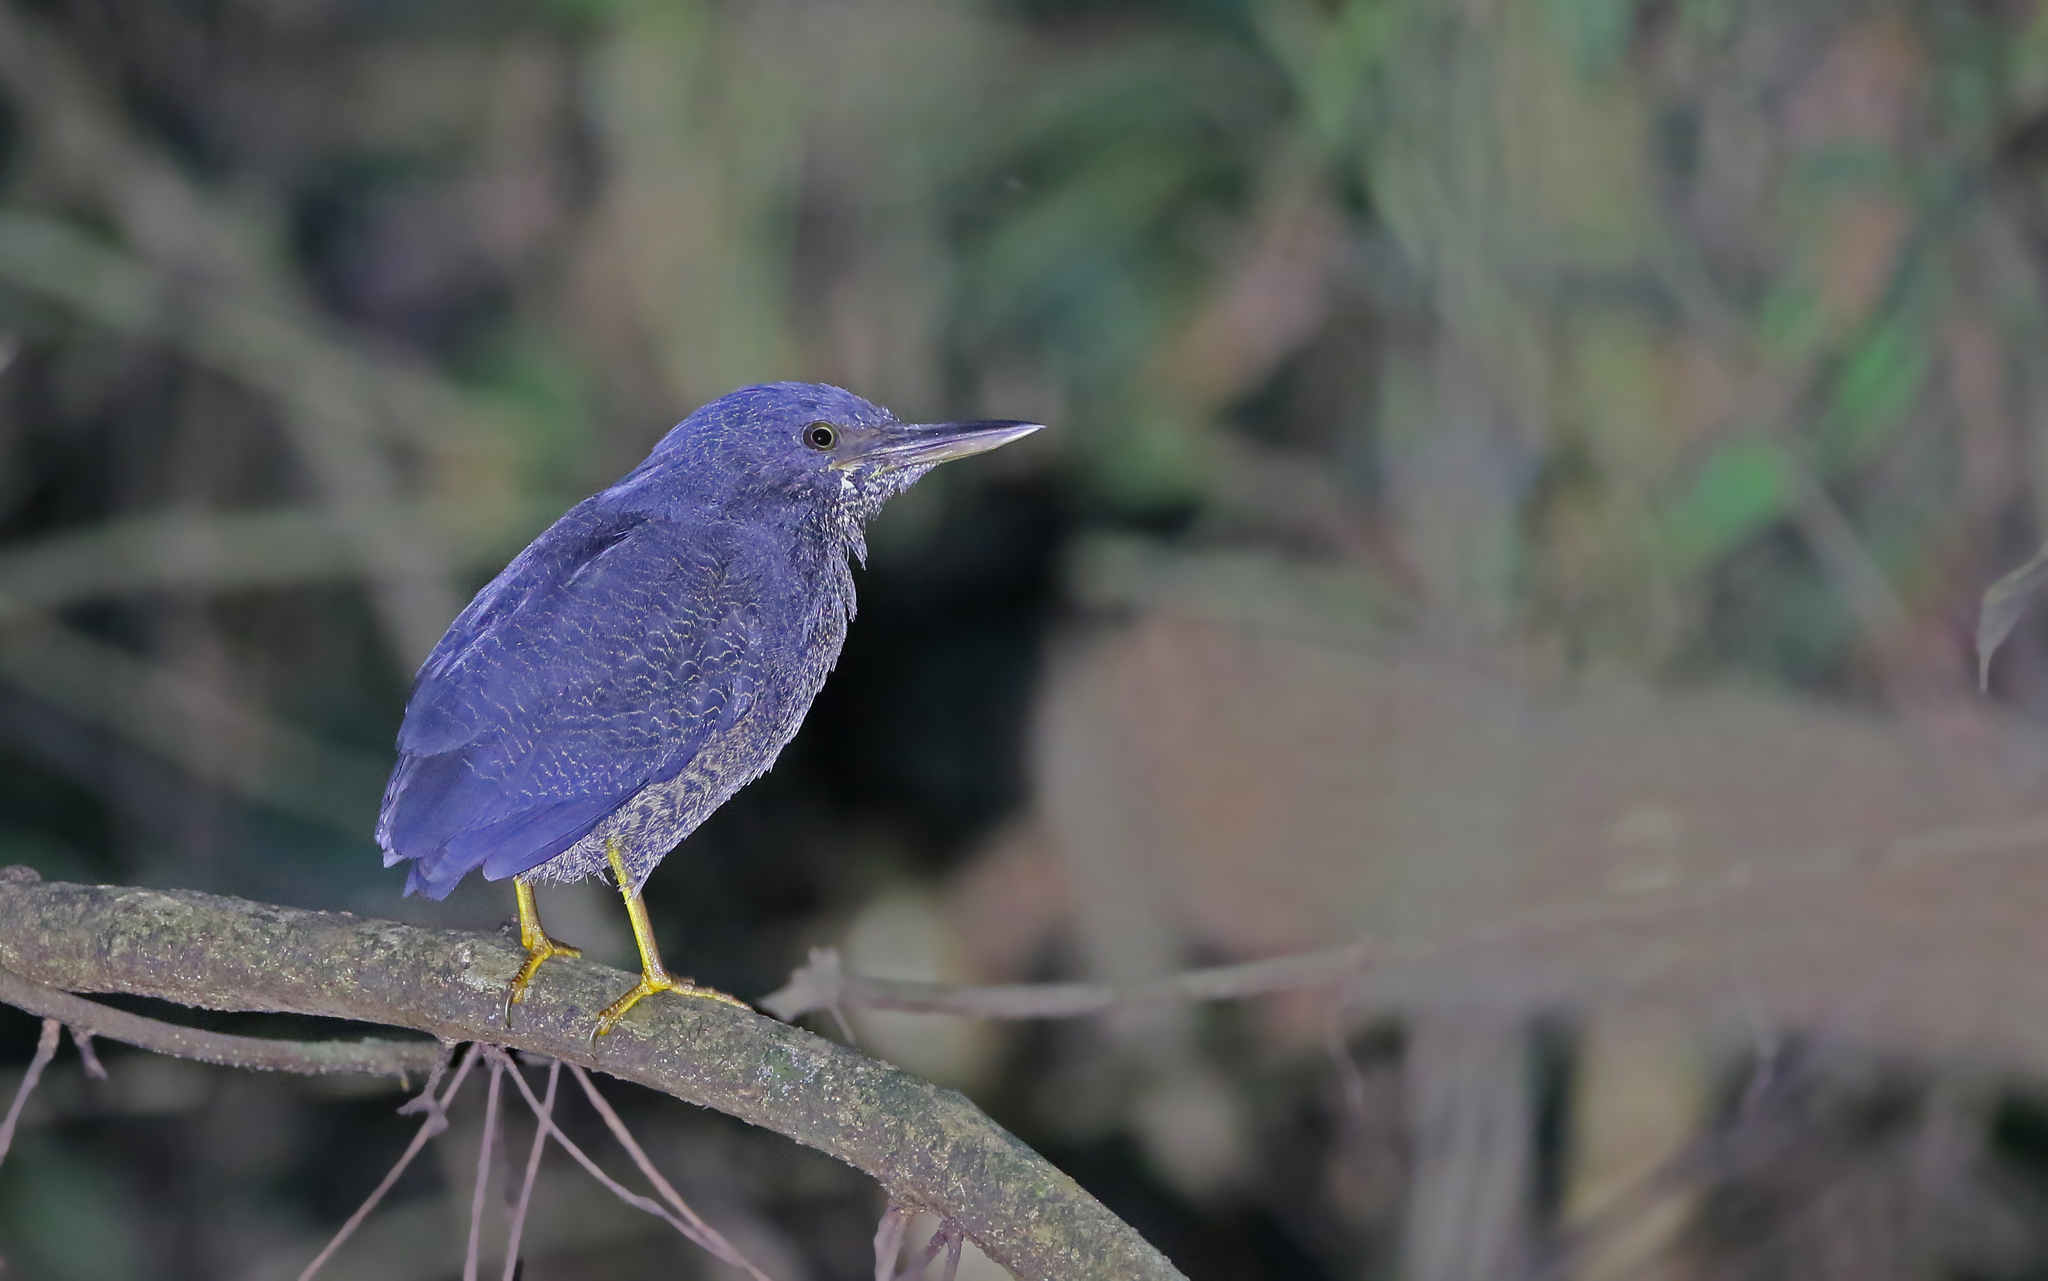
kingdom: Animalia
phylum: Chordata
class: Aves
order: Pelecaniformes
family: Ardeidae
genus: Zebrilus
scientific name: Zebrilus undulatus
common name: Zigzag heron
